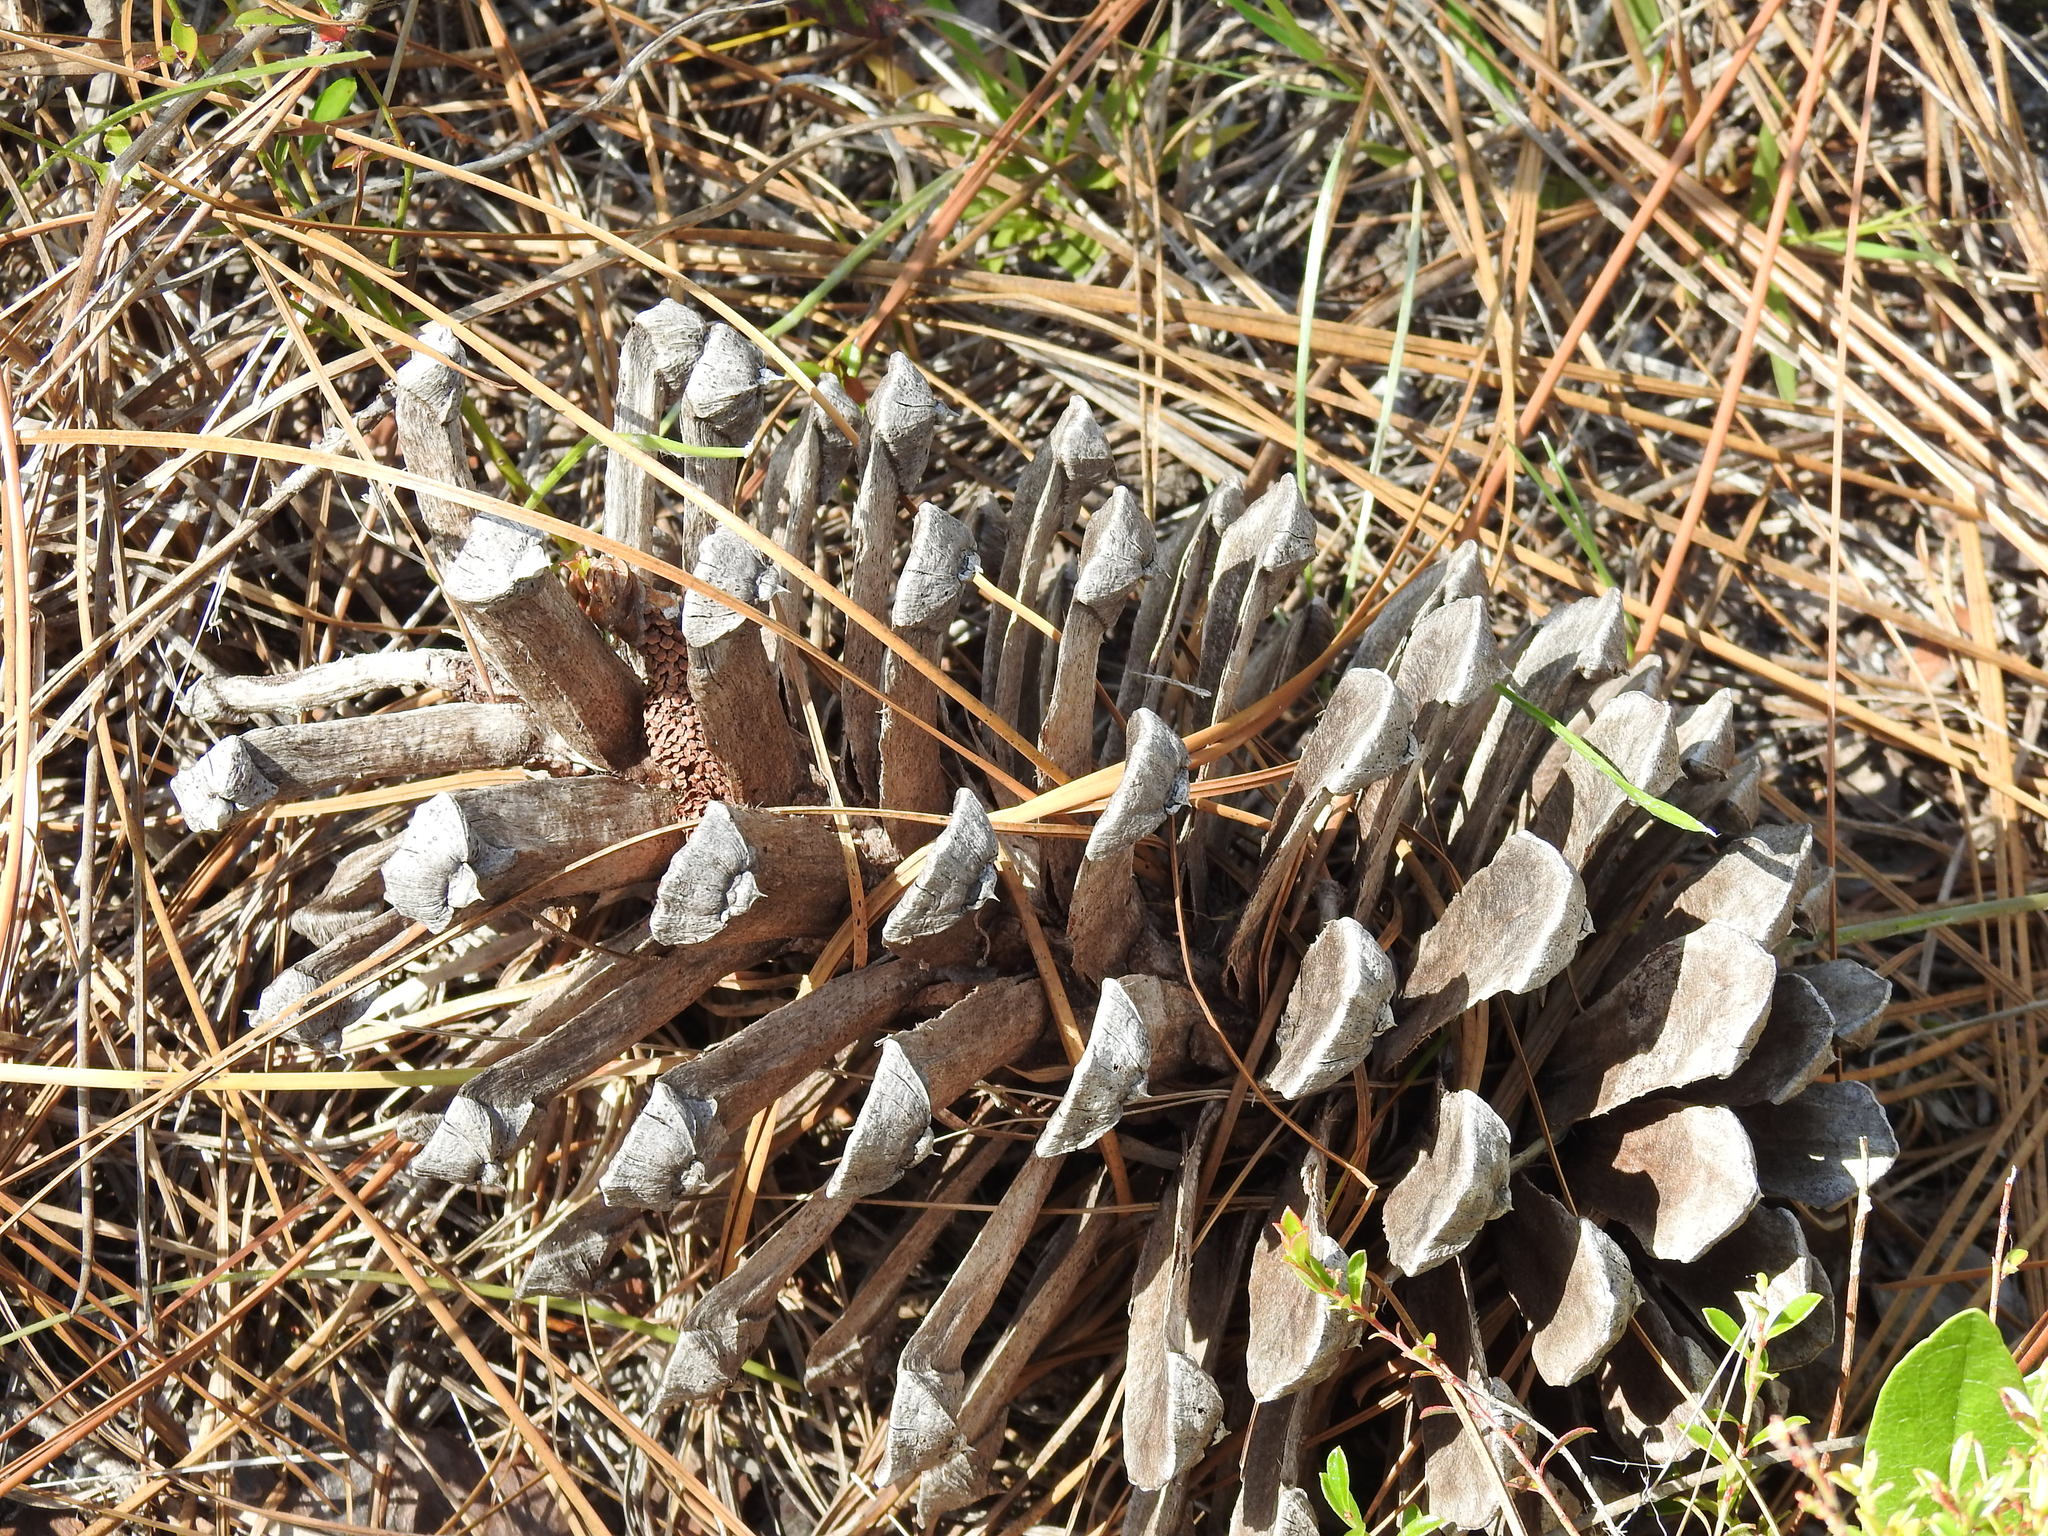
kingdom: Plantae
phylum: Tracheophyta
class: Pinopsida
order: Pinales
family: Pinaceae
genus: Pinus
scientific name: Pinus palustris
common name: Longleaf pine
